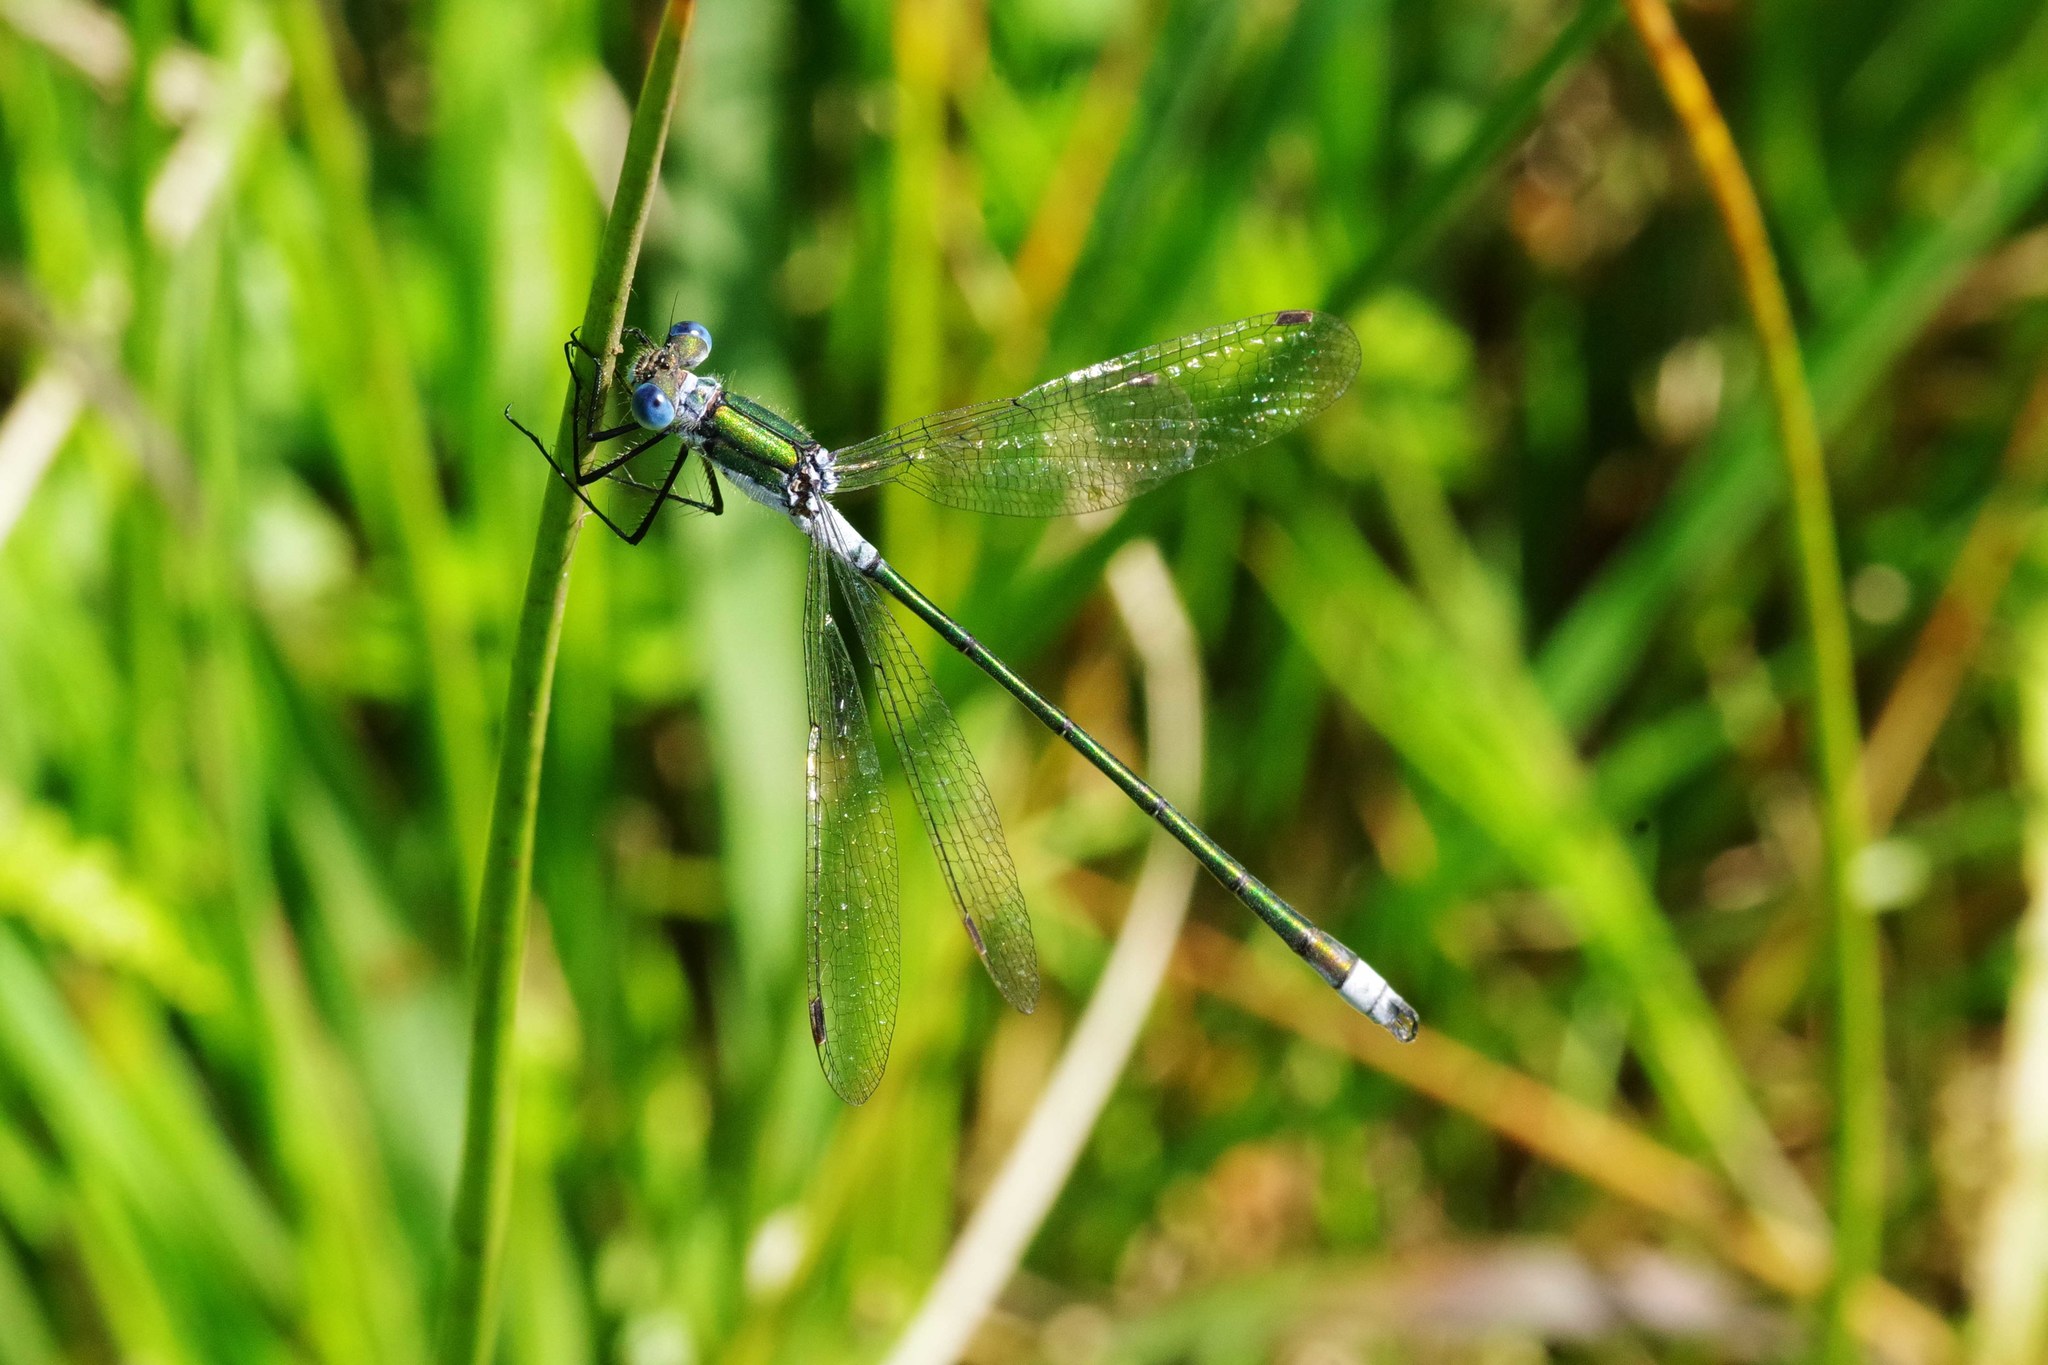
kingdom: Animalia
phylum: Arthropoda
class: Insecta
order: Odonata
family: Lestidae
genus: Lestes
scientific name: Lestes sponsa
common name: Common spreadwing
